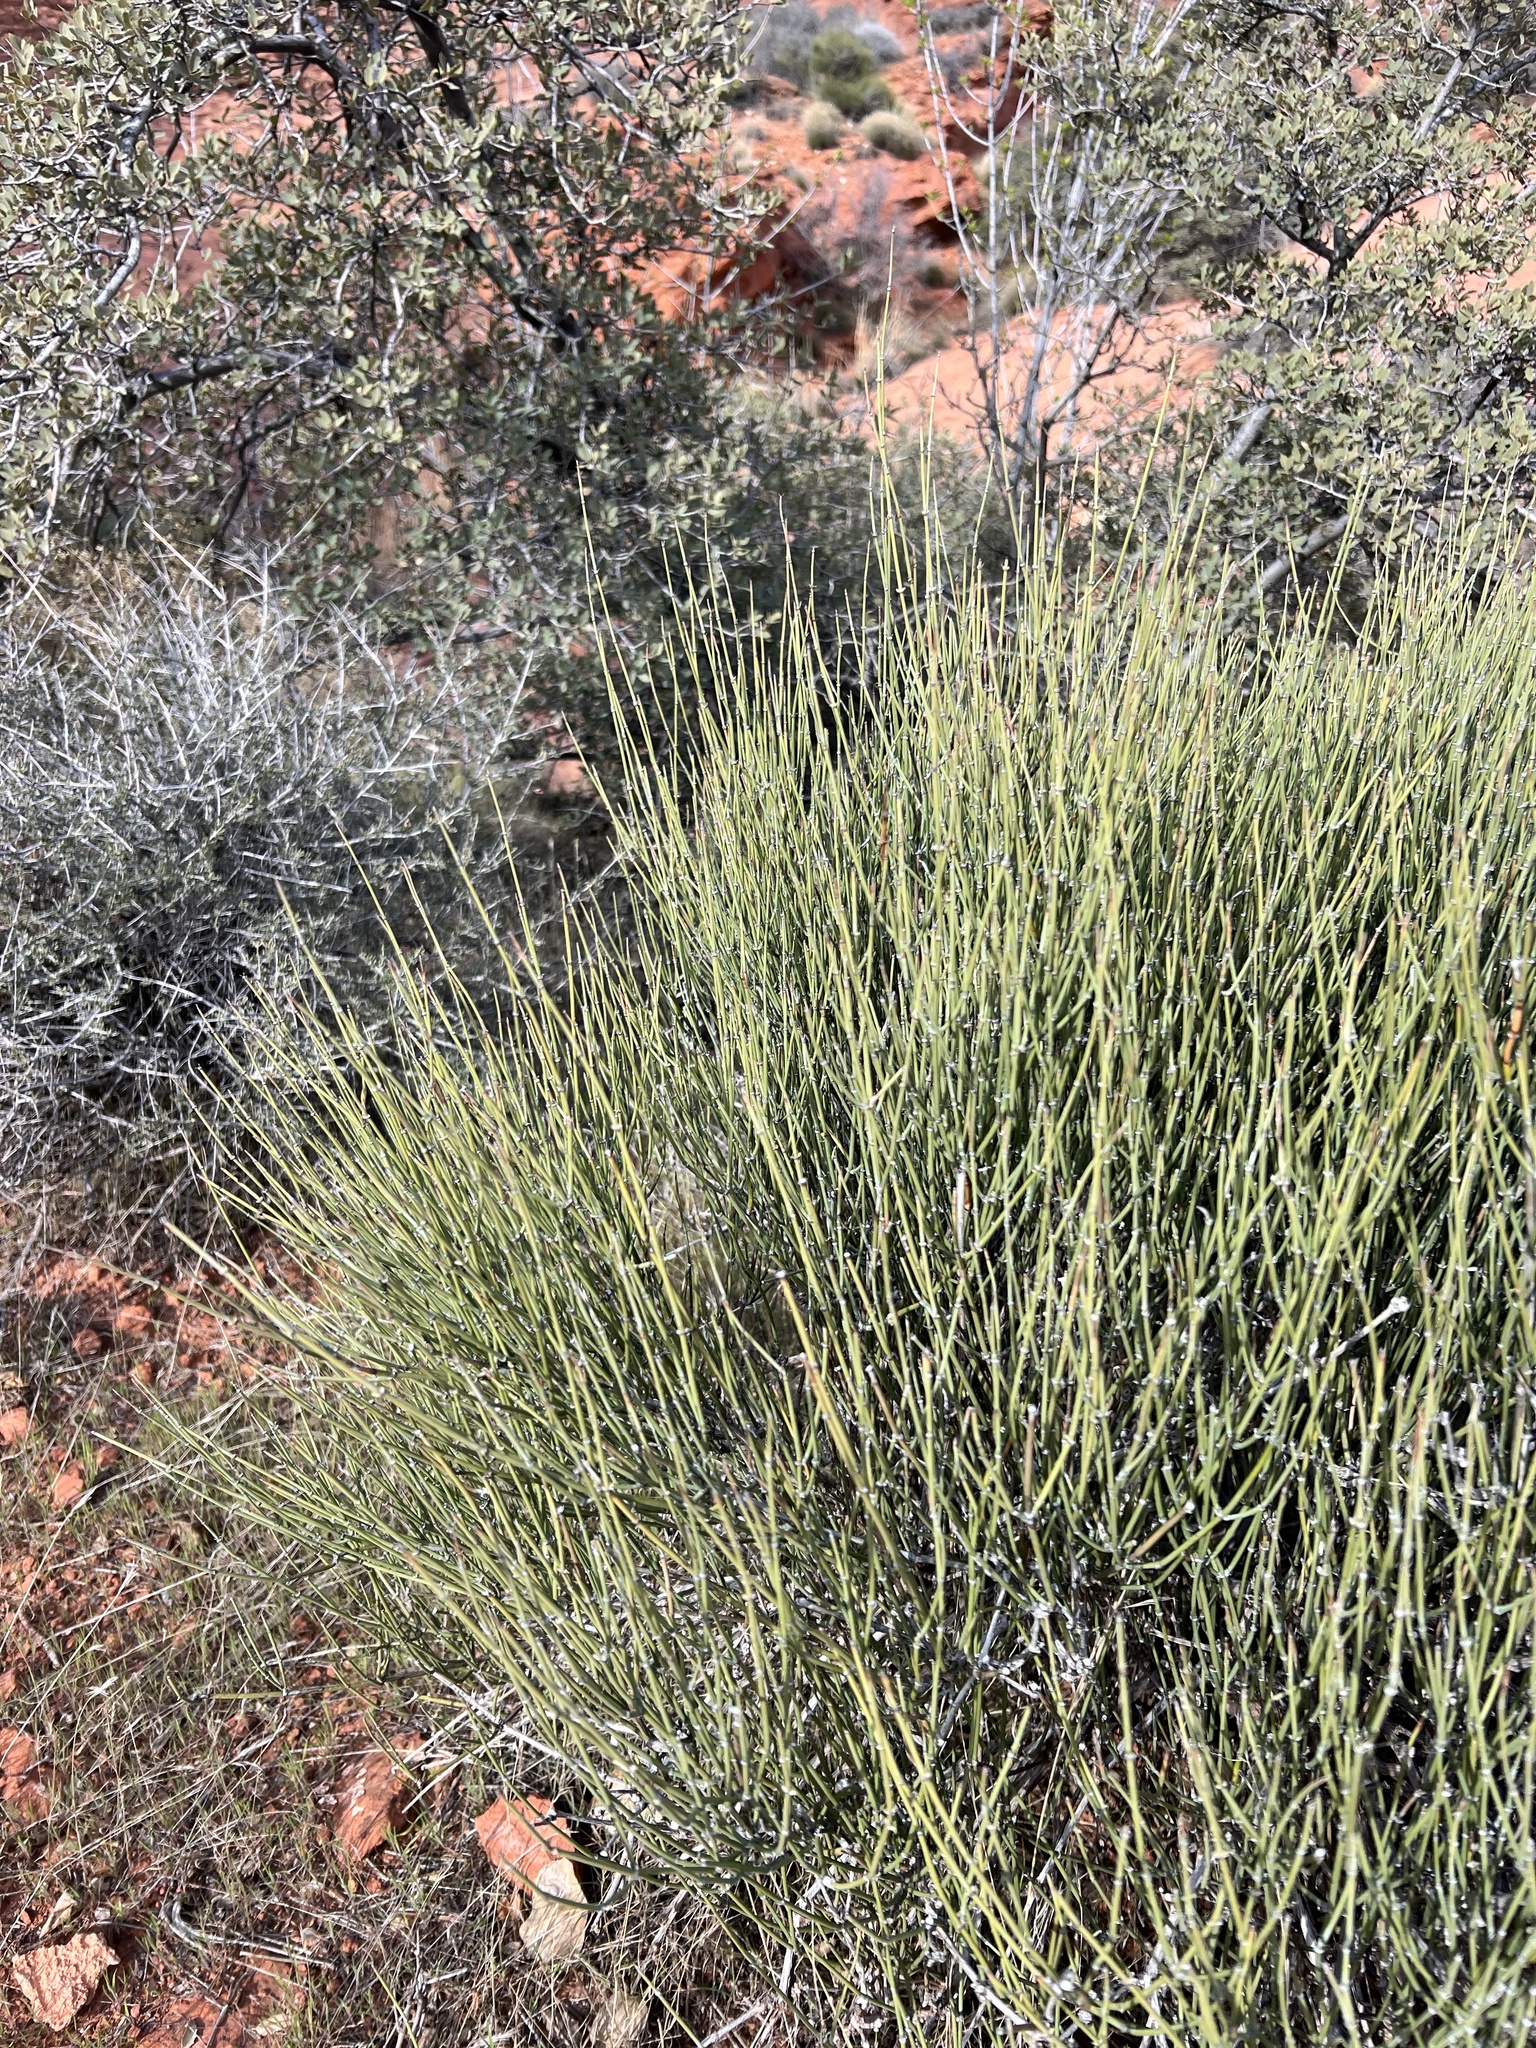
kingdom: Plantae
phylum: Tracheophyta
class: Gnetopsida
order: Ephedrales
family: Ephedraceae
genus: Ephedra
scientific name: Ephedra viridis
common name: Green ephedra
